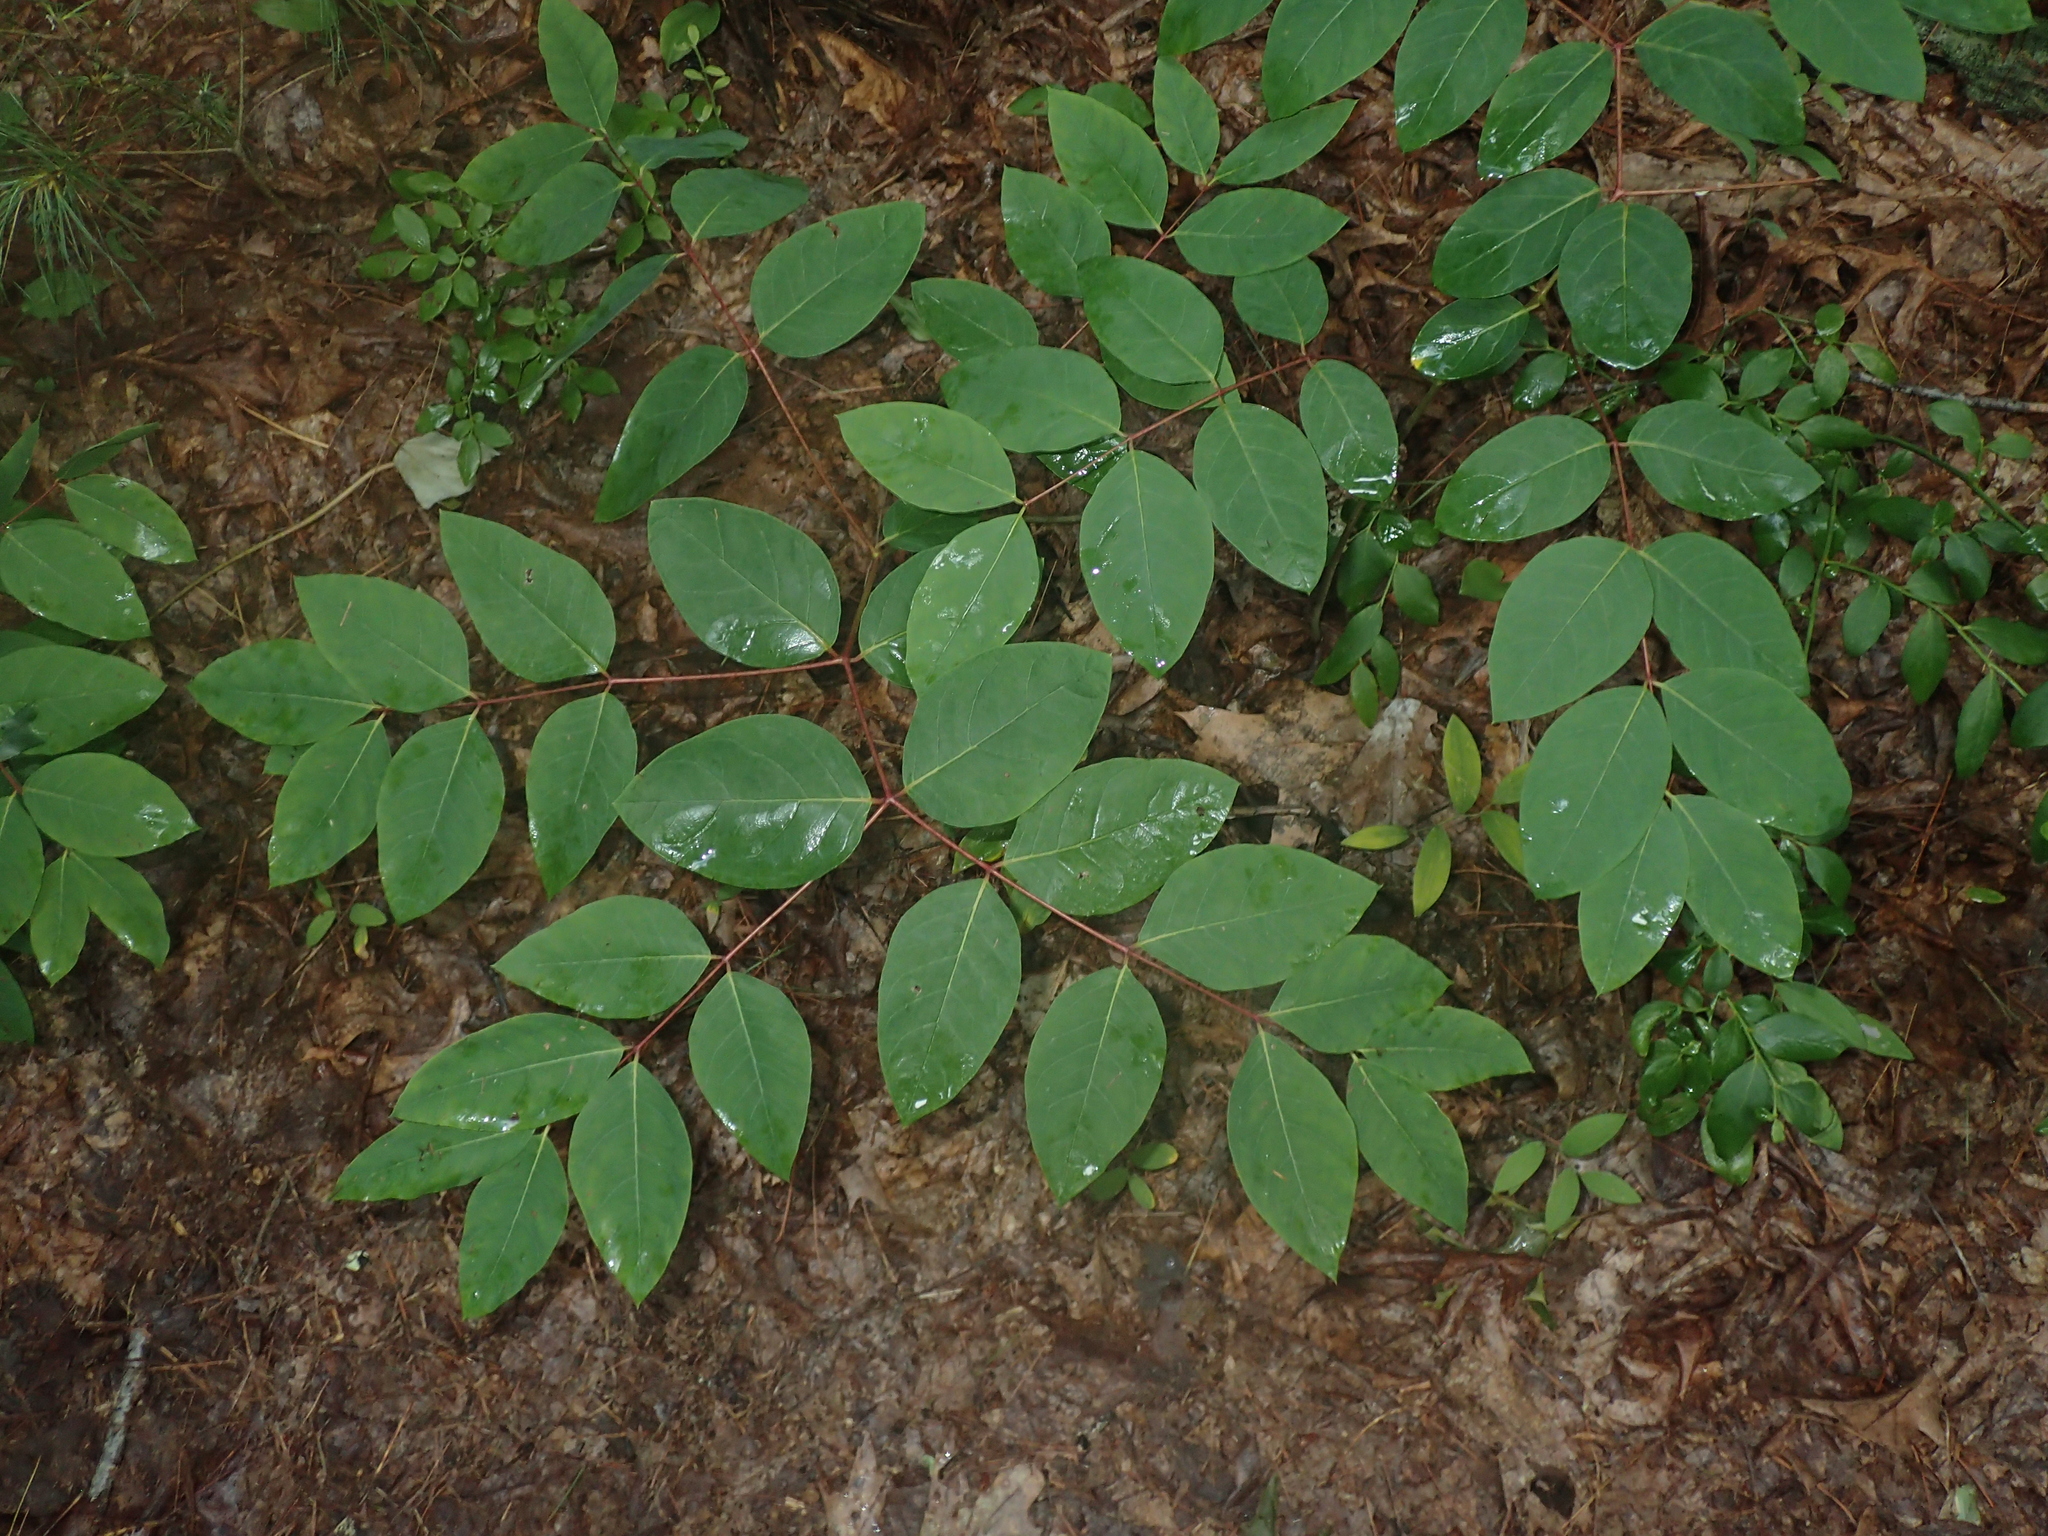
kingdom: Plantae
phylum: Tracheophyta
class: Magnoliopsida
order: Gentianales
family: Apocynaceae
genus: Apocynum
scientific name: Apocynum androsaemifolium
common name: Spreading dogbane
